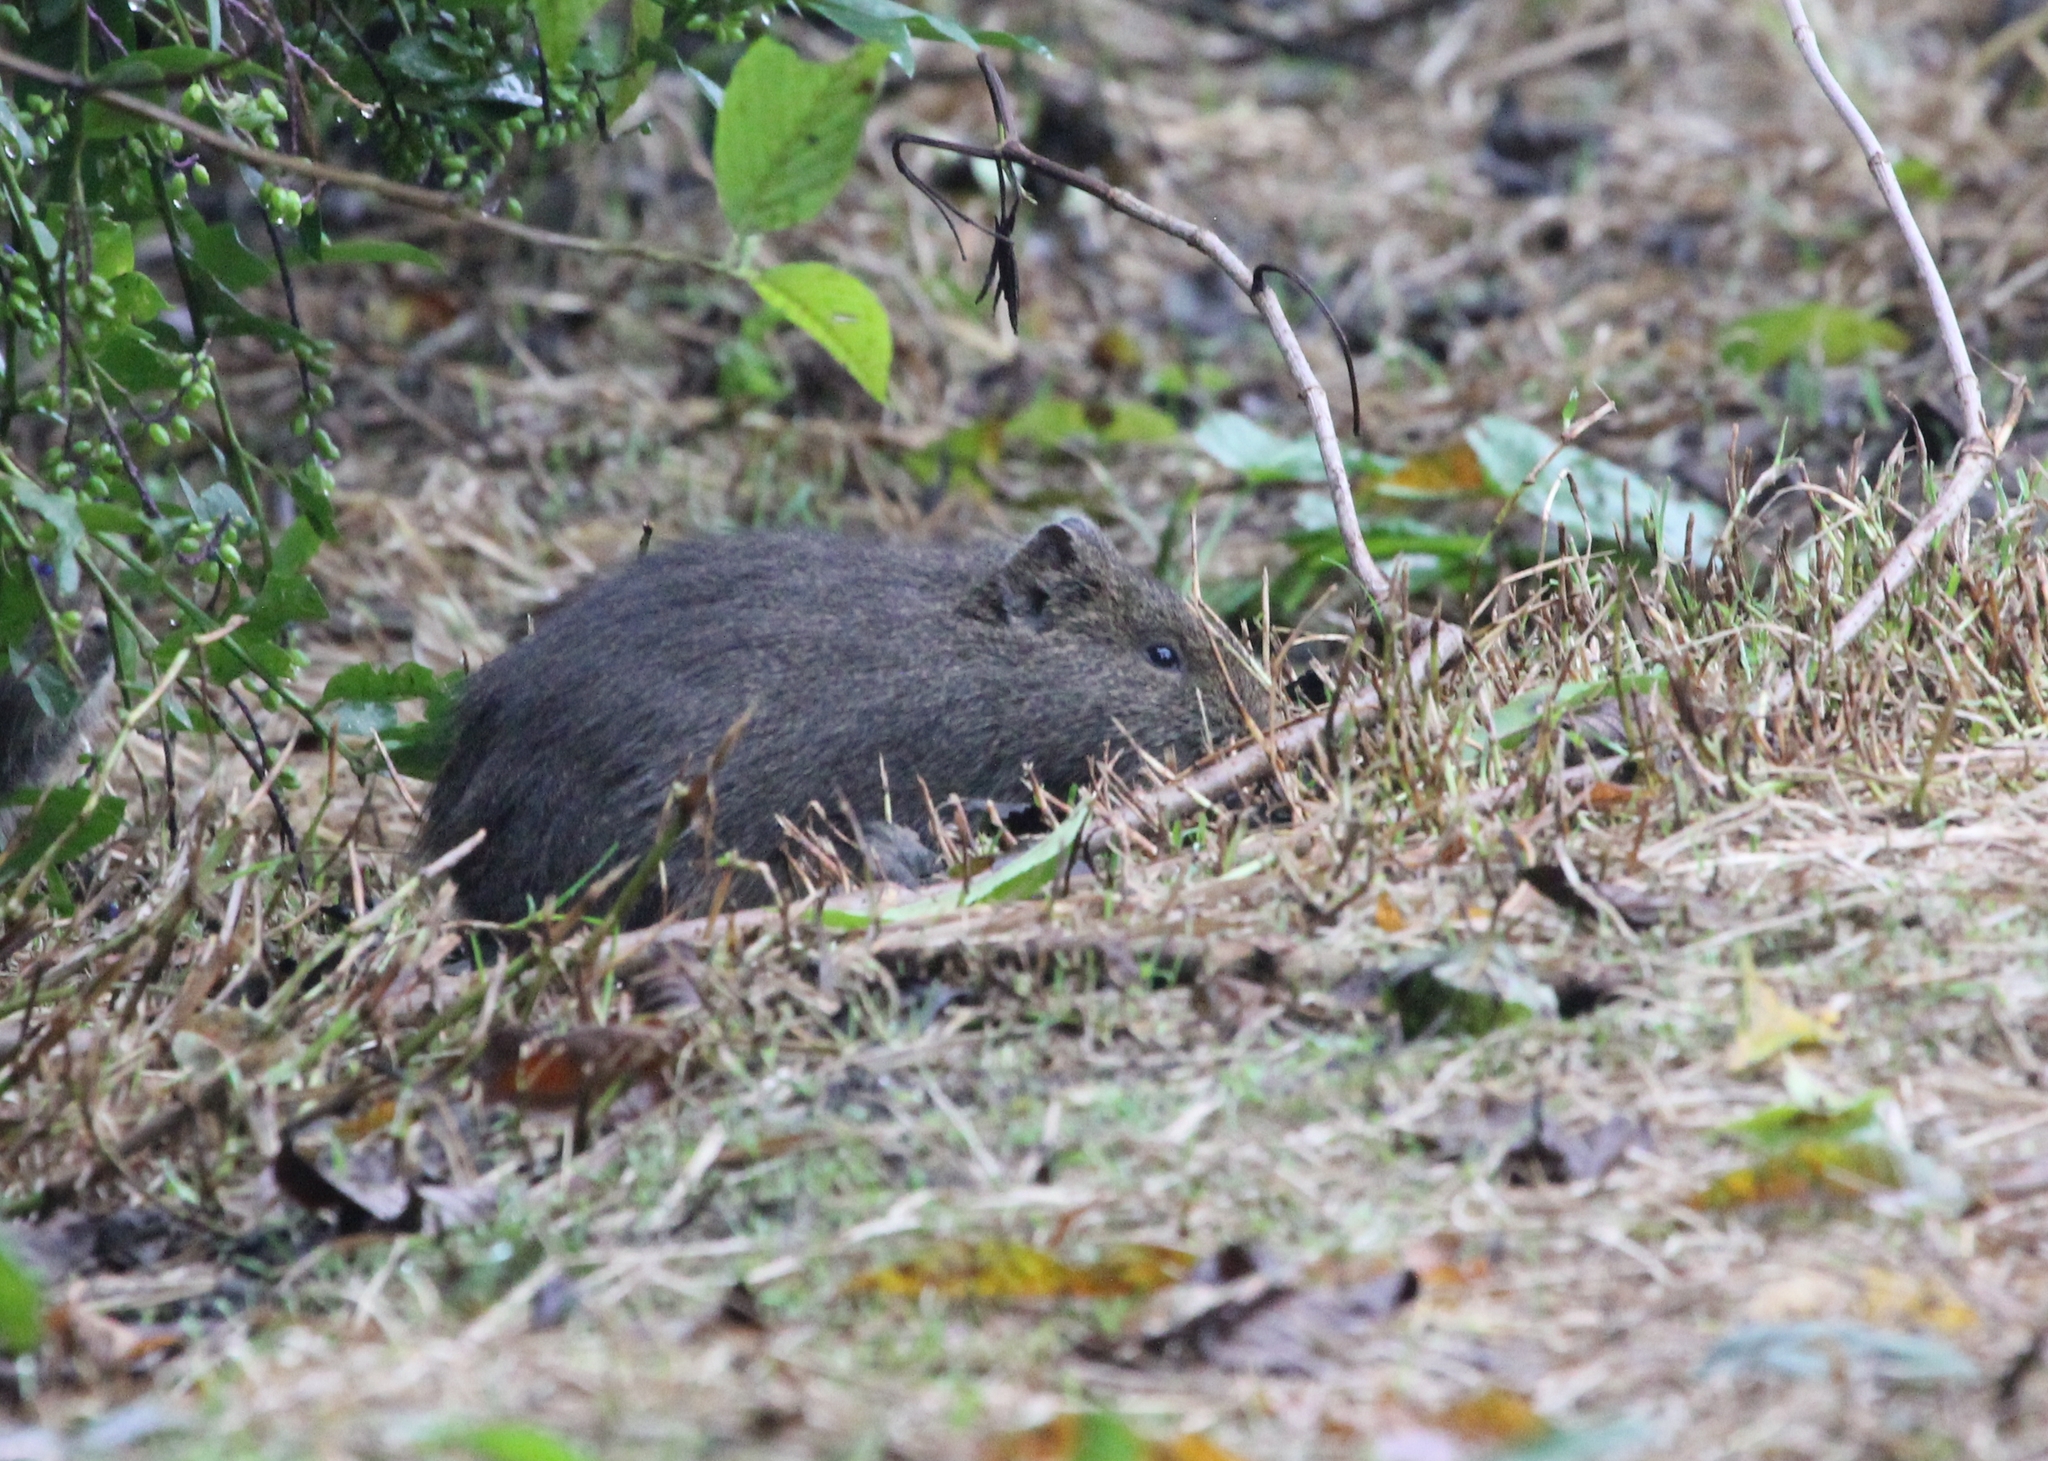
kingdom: Animalia
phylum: Chordata
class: Mammalia
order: Rodentia
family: Caviidae
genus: Cavia
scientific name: Cavia aperea
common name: Brazilian guinea pig
